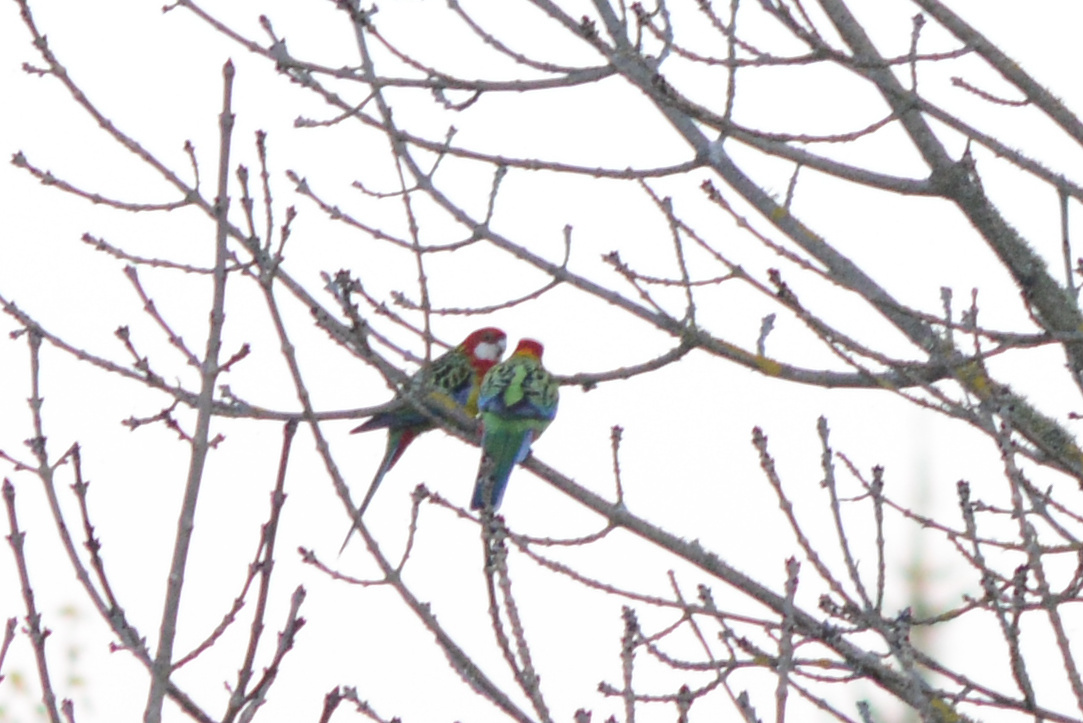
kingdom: Animalia
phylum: Chordata
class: Aves
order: Psittaciformes
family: Psittacidae
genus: Platycercus
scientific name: Platycercus eximius
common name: Eastern rosella
